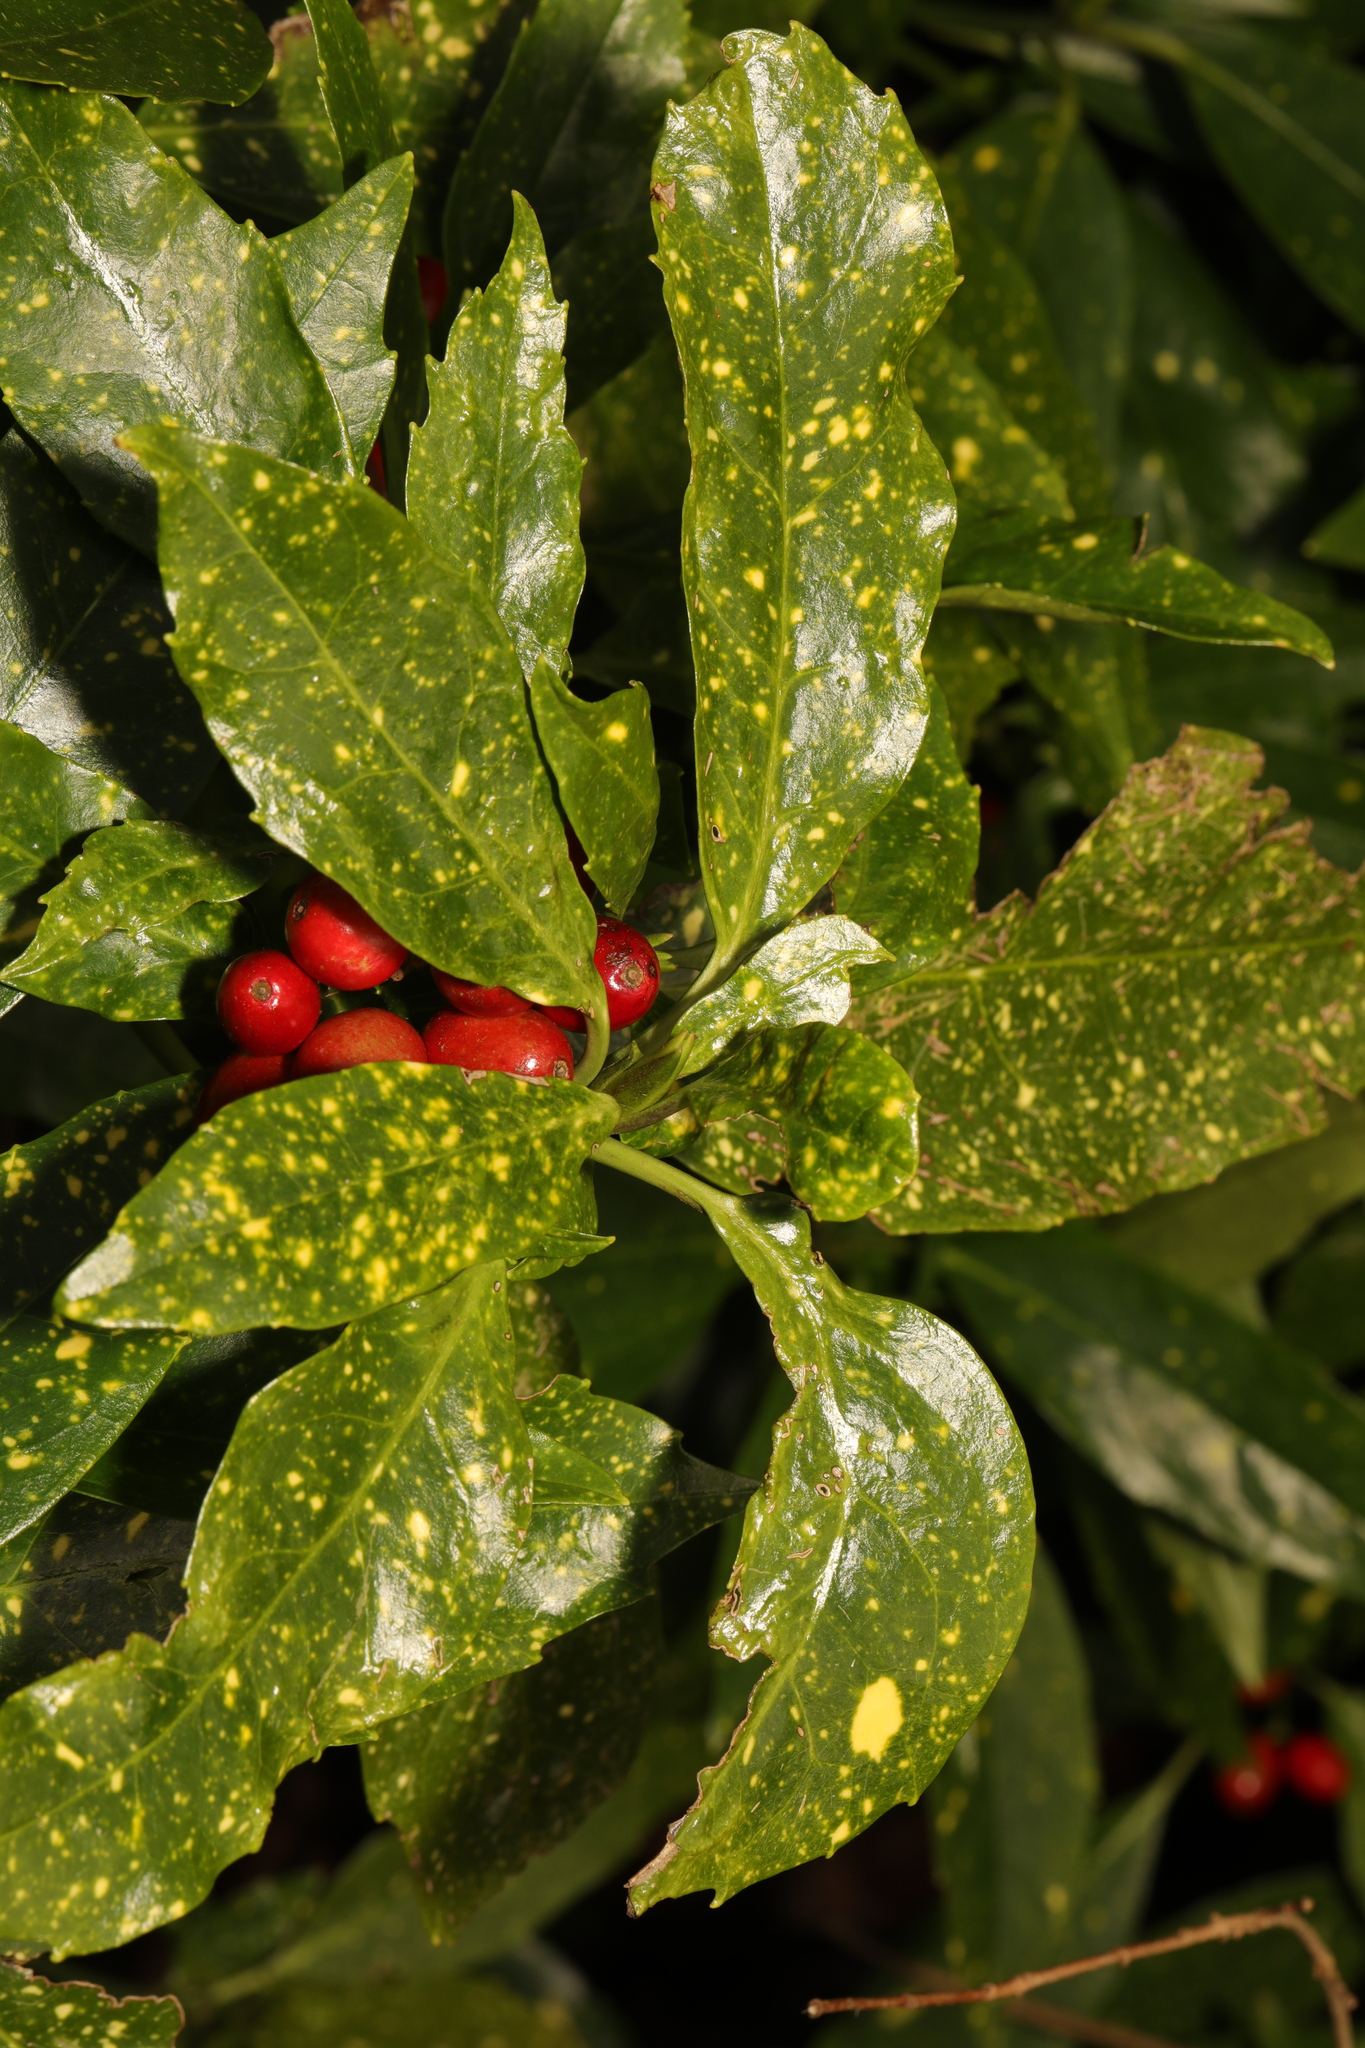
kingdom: Plantae
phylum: Tracheophyta
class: Magnoliopsida
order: Garryales
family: Garryaceae
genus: Aucuba
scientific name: Aucuba japonica
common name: Spotted-laurel
